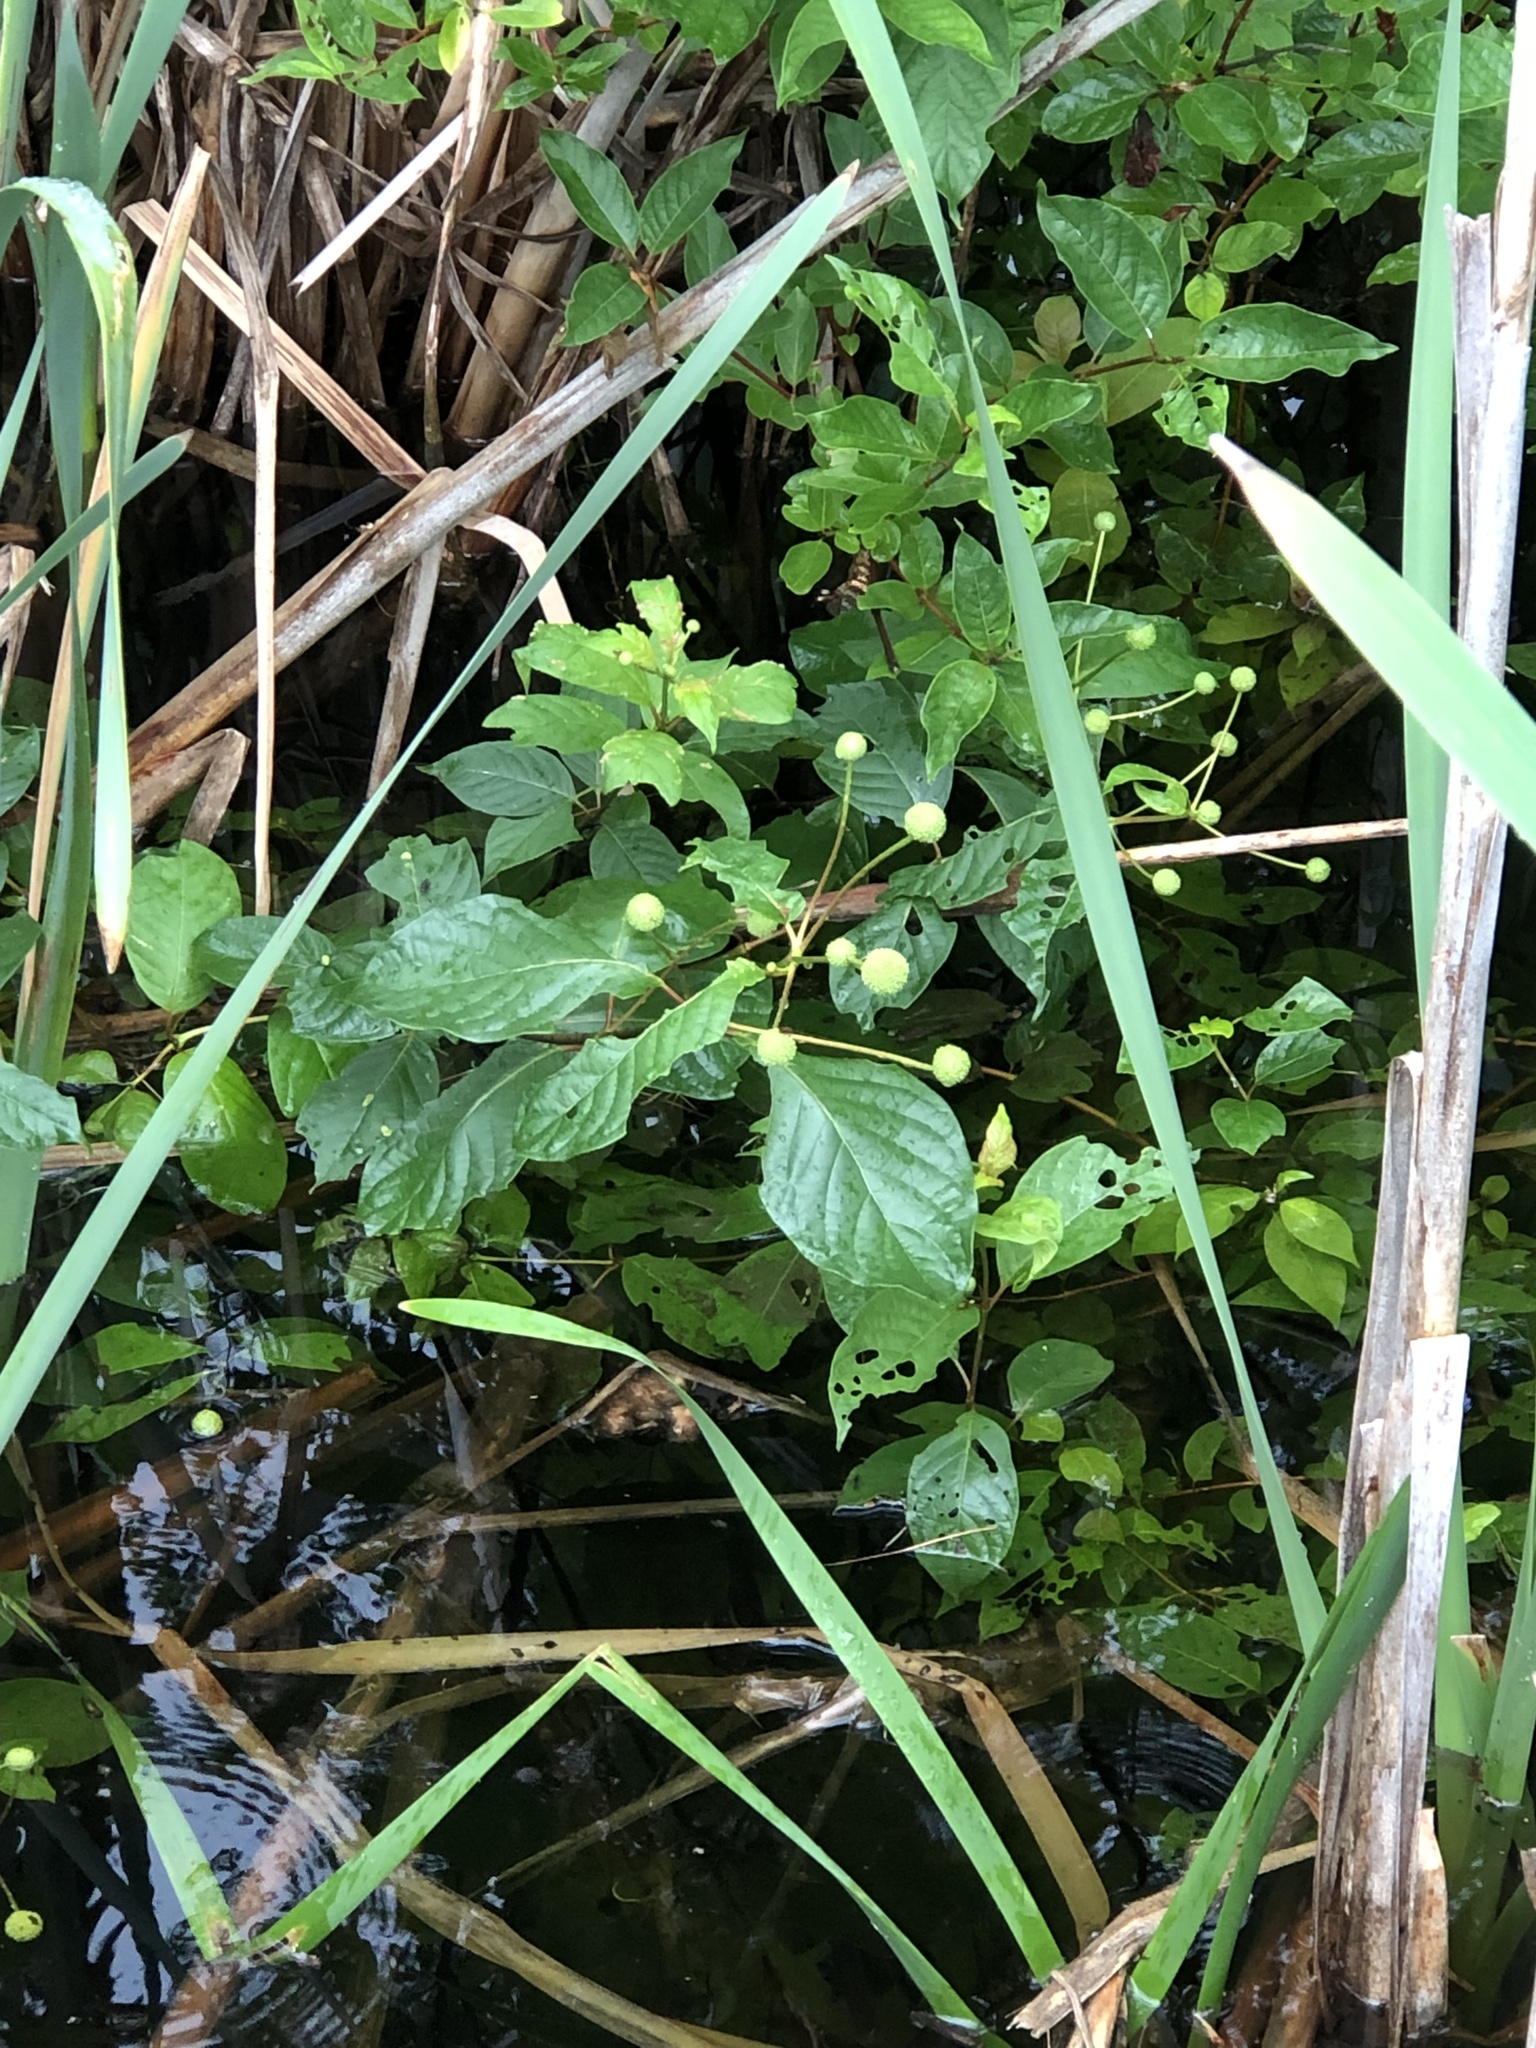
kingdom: Plantae
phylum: Tracheophyta
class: Magnoliopsida
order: Gentianales
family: Rubiaceae
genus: Cephalanthus
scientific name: Cephalanthus occidentalis
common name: Button-willow
